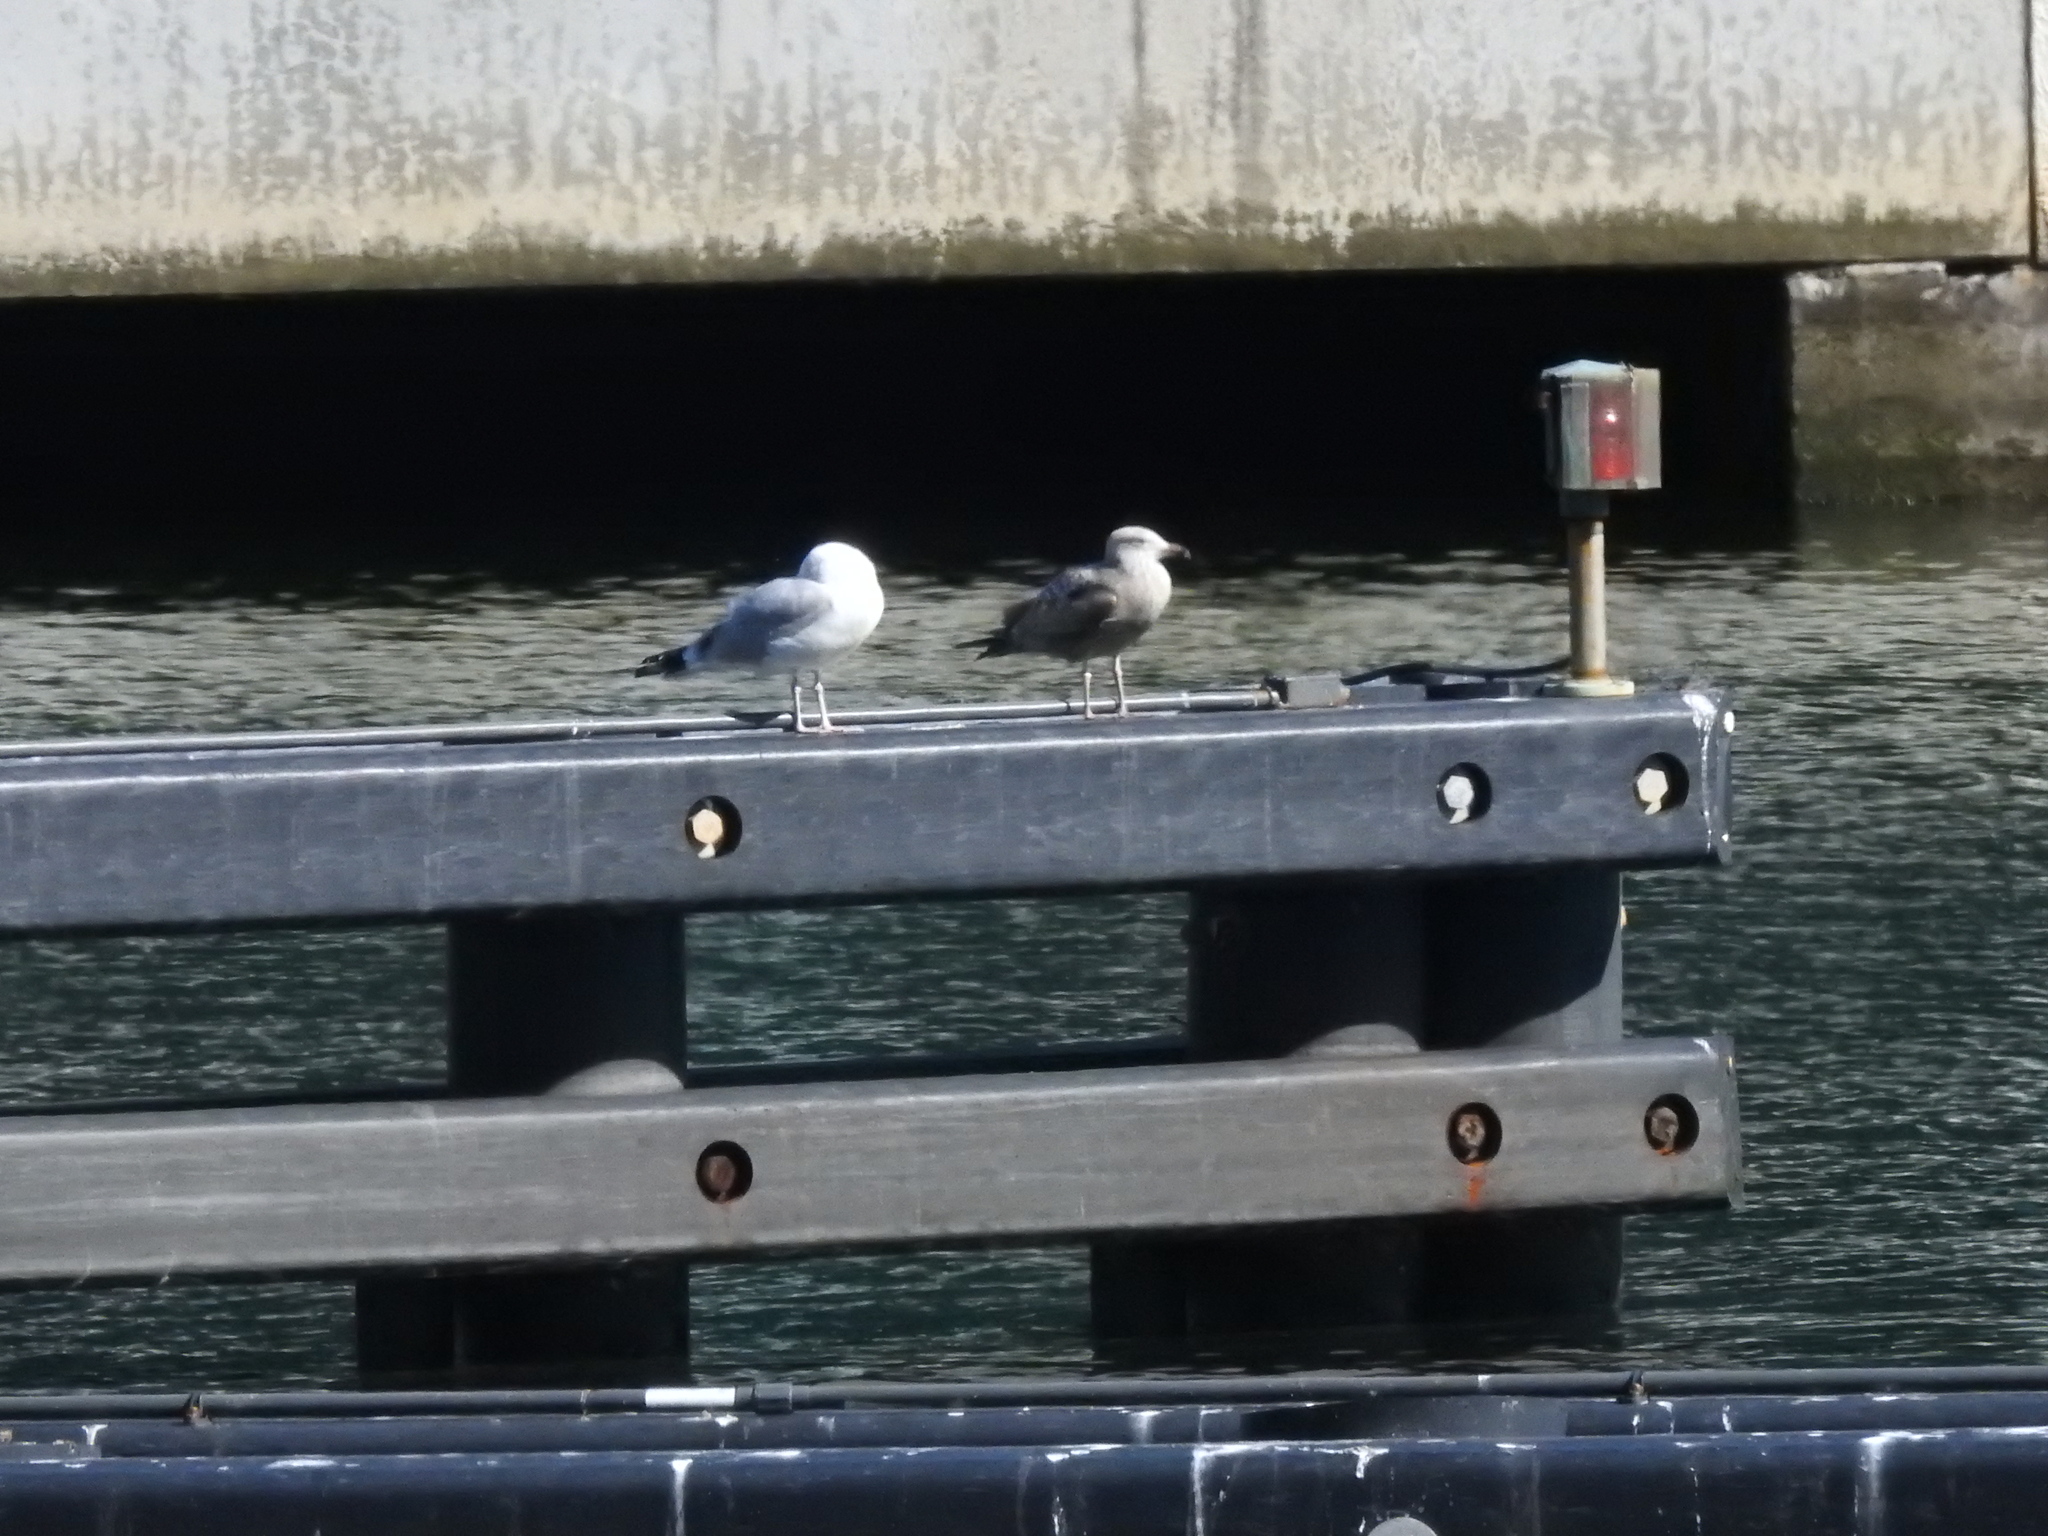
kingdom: Animalia
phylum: Chordata
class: Aves
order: Charadriiformes
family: Laridae
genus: Larus
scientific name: Larus argentatus
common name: Herring gull
